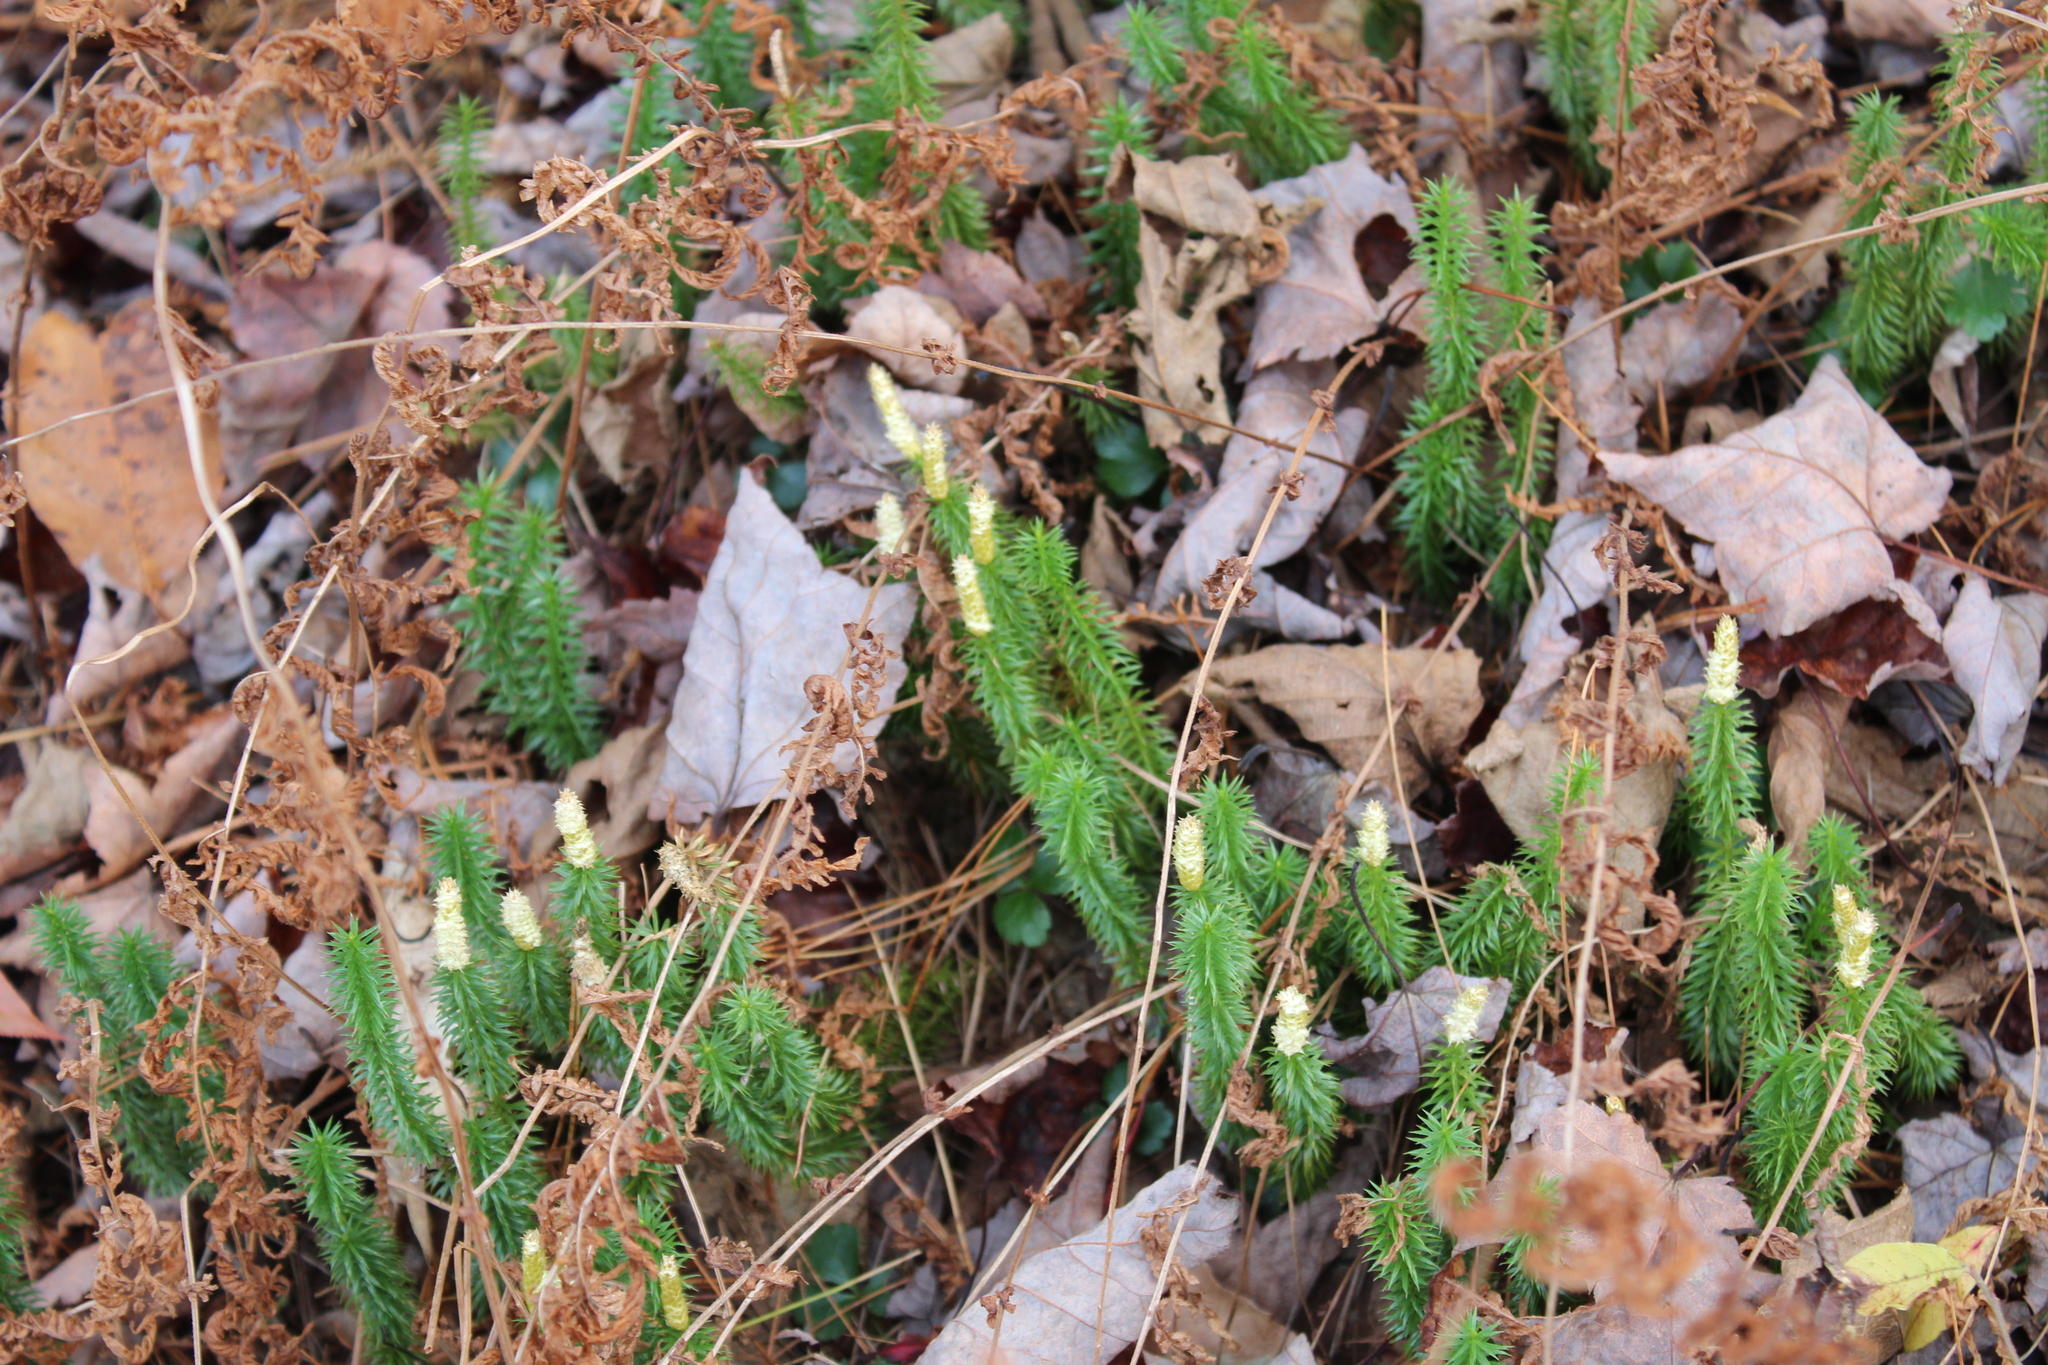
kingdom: Plantae
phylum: Tracheophyta
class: Lycopodiopsida
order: Lycopodiales
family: Lycopodiaceae
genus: Spinulum
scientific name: Spinulum annotinum
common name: Interrupted club-moss
